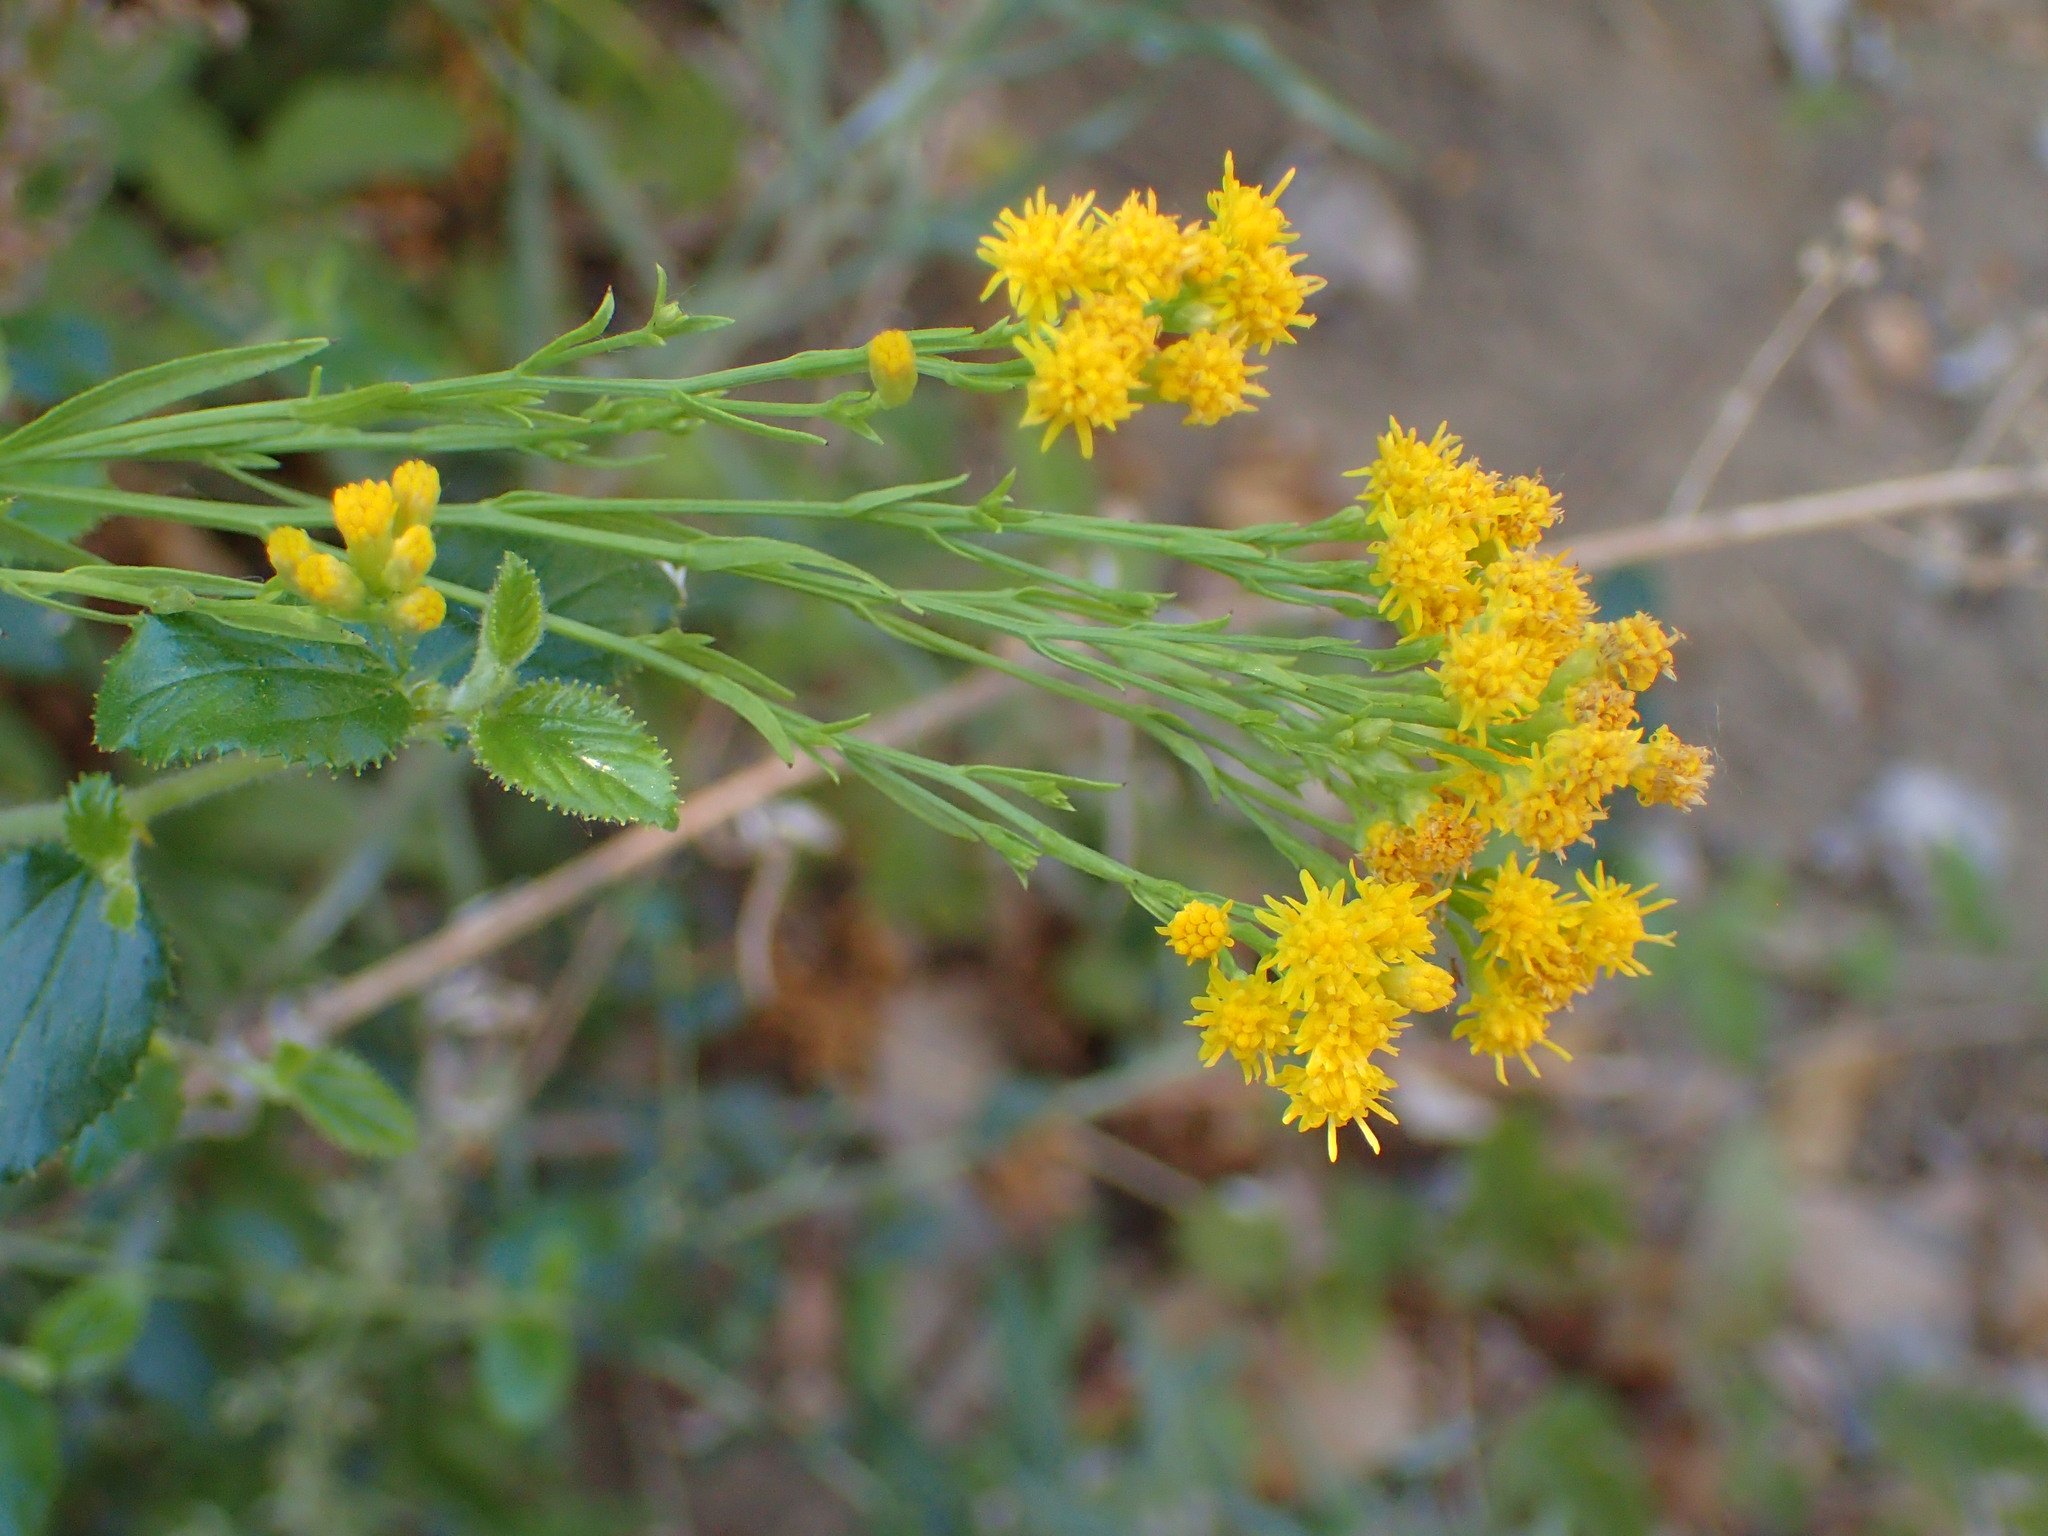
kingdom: Plantae
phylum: Tracheophyta
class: Magnoliopsida
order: Asterales
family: Asteraceae
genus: Euthamia
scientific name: Euthamia occidentalis
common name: Western goldentop
